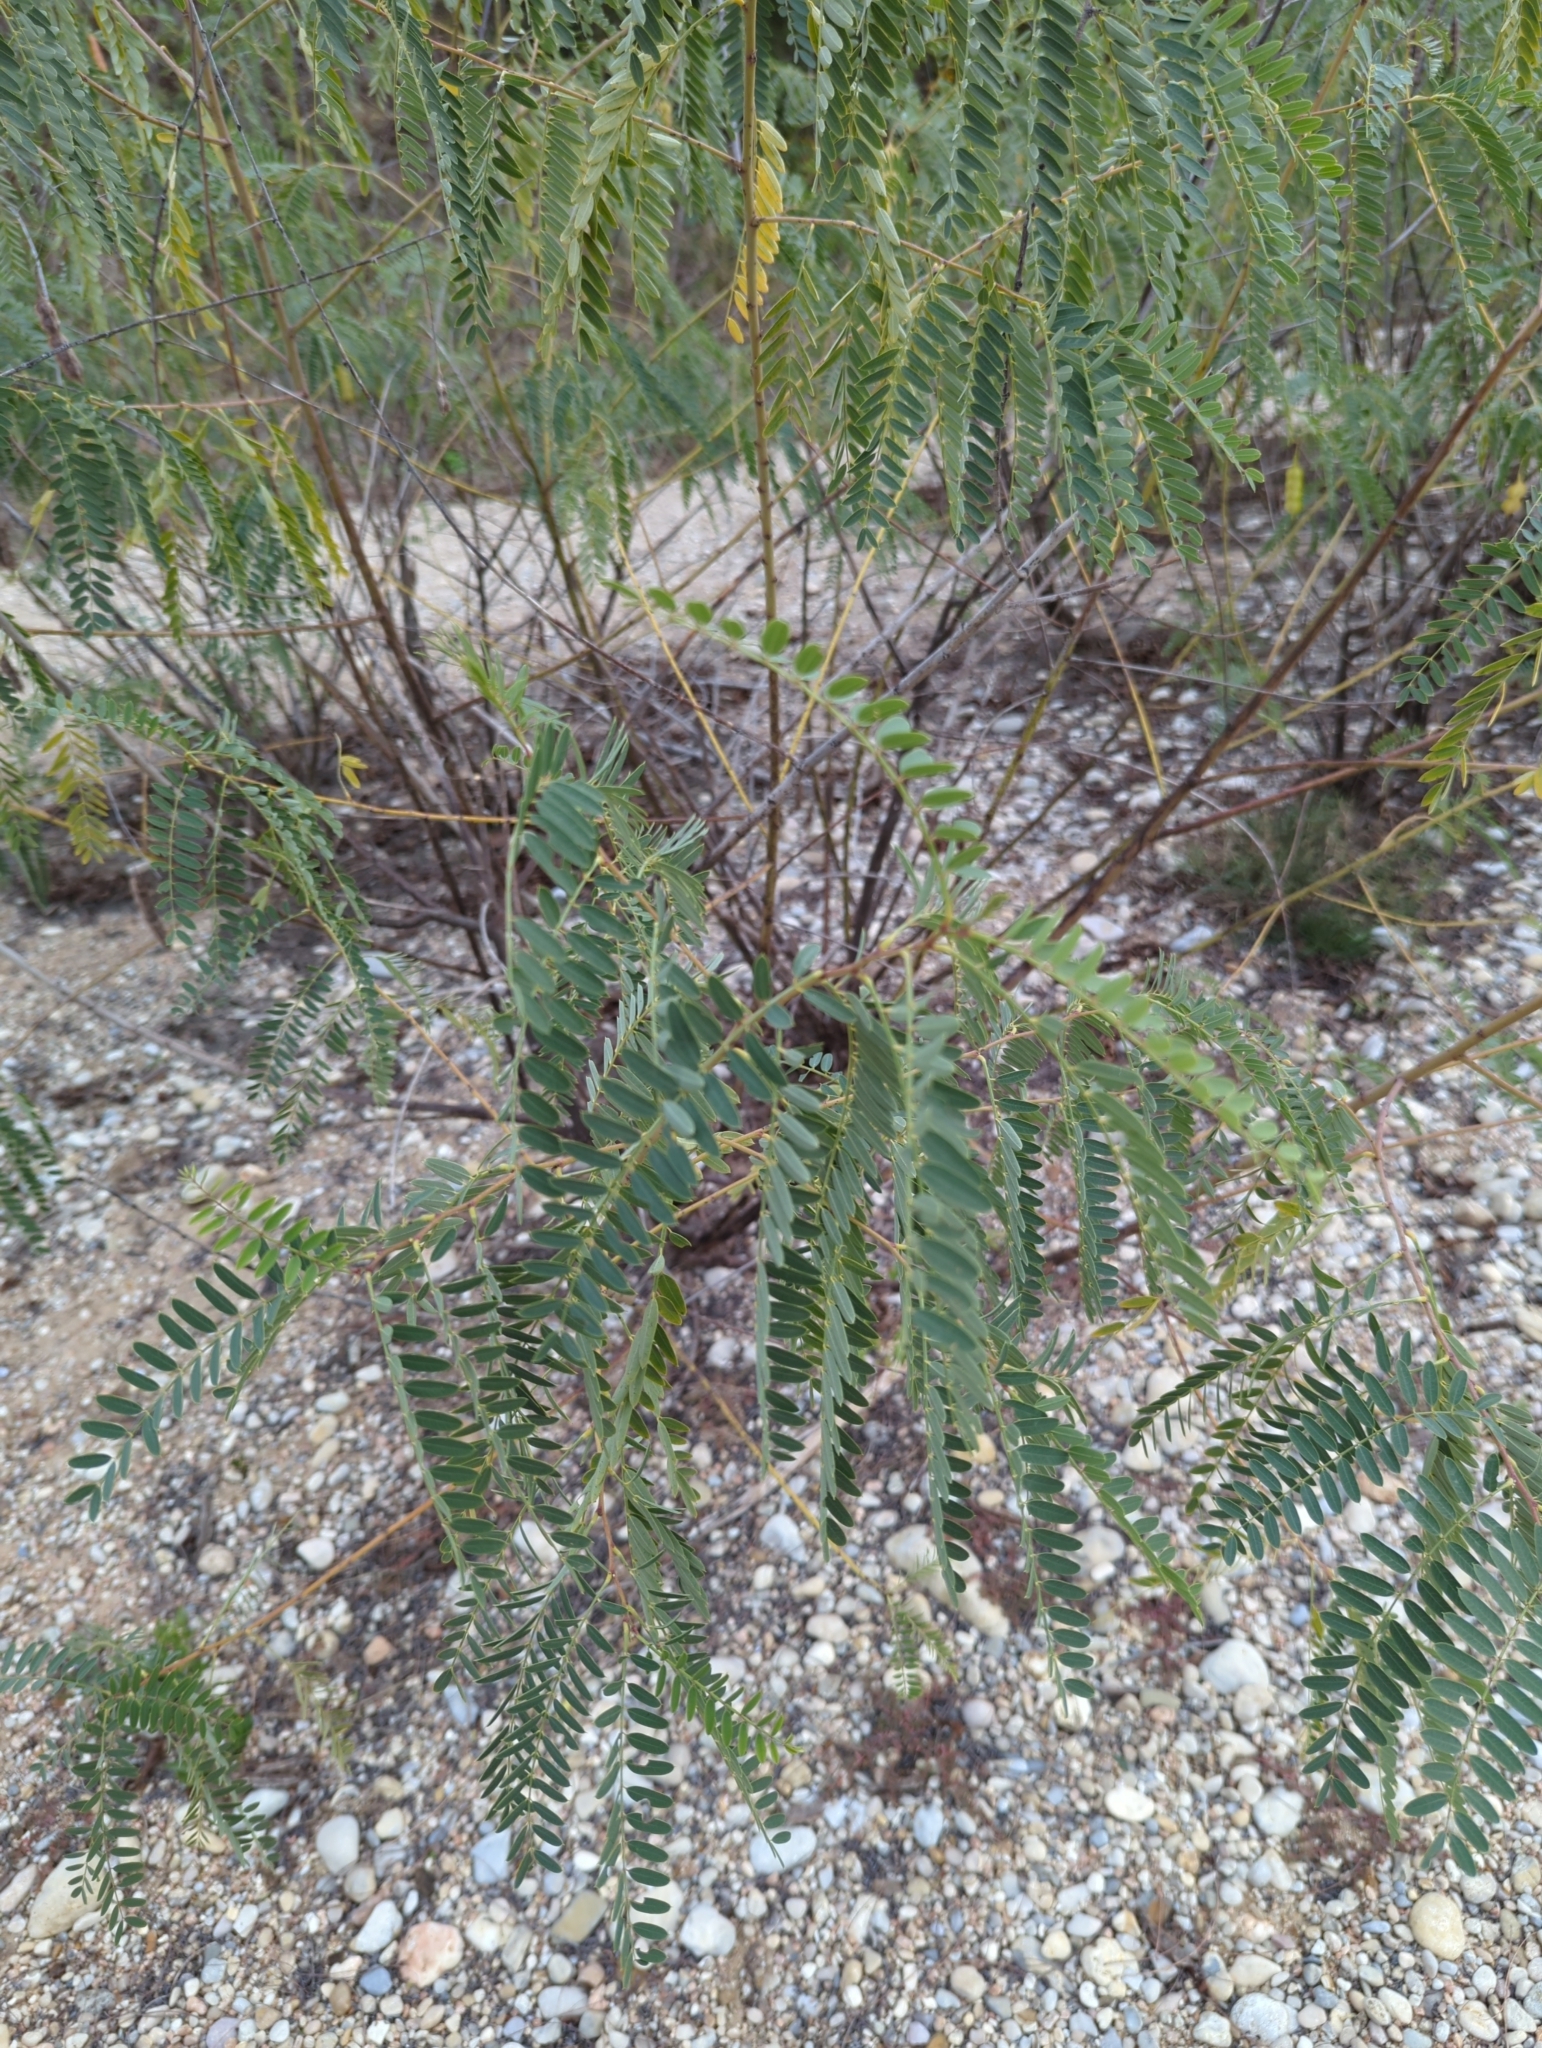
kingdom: Plantae
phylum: Tracheophyta
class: Magnoliopsida
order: Fabales
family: Fabaceae
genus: Sesbania
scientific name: Sesbania drummondii
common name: Poison-bean
